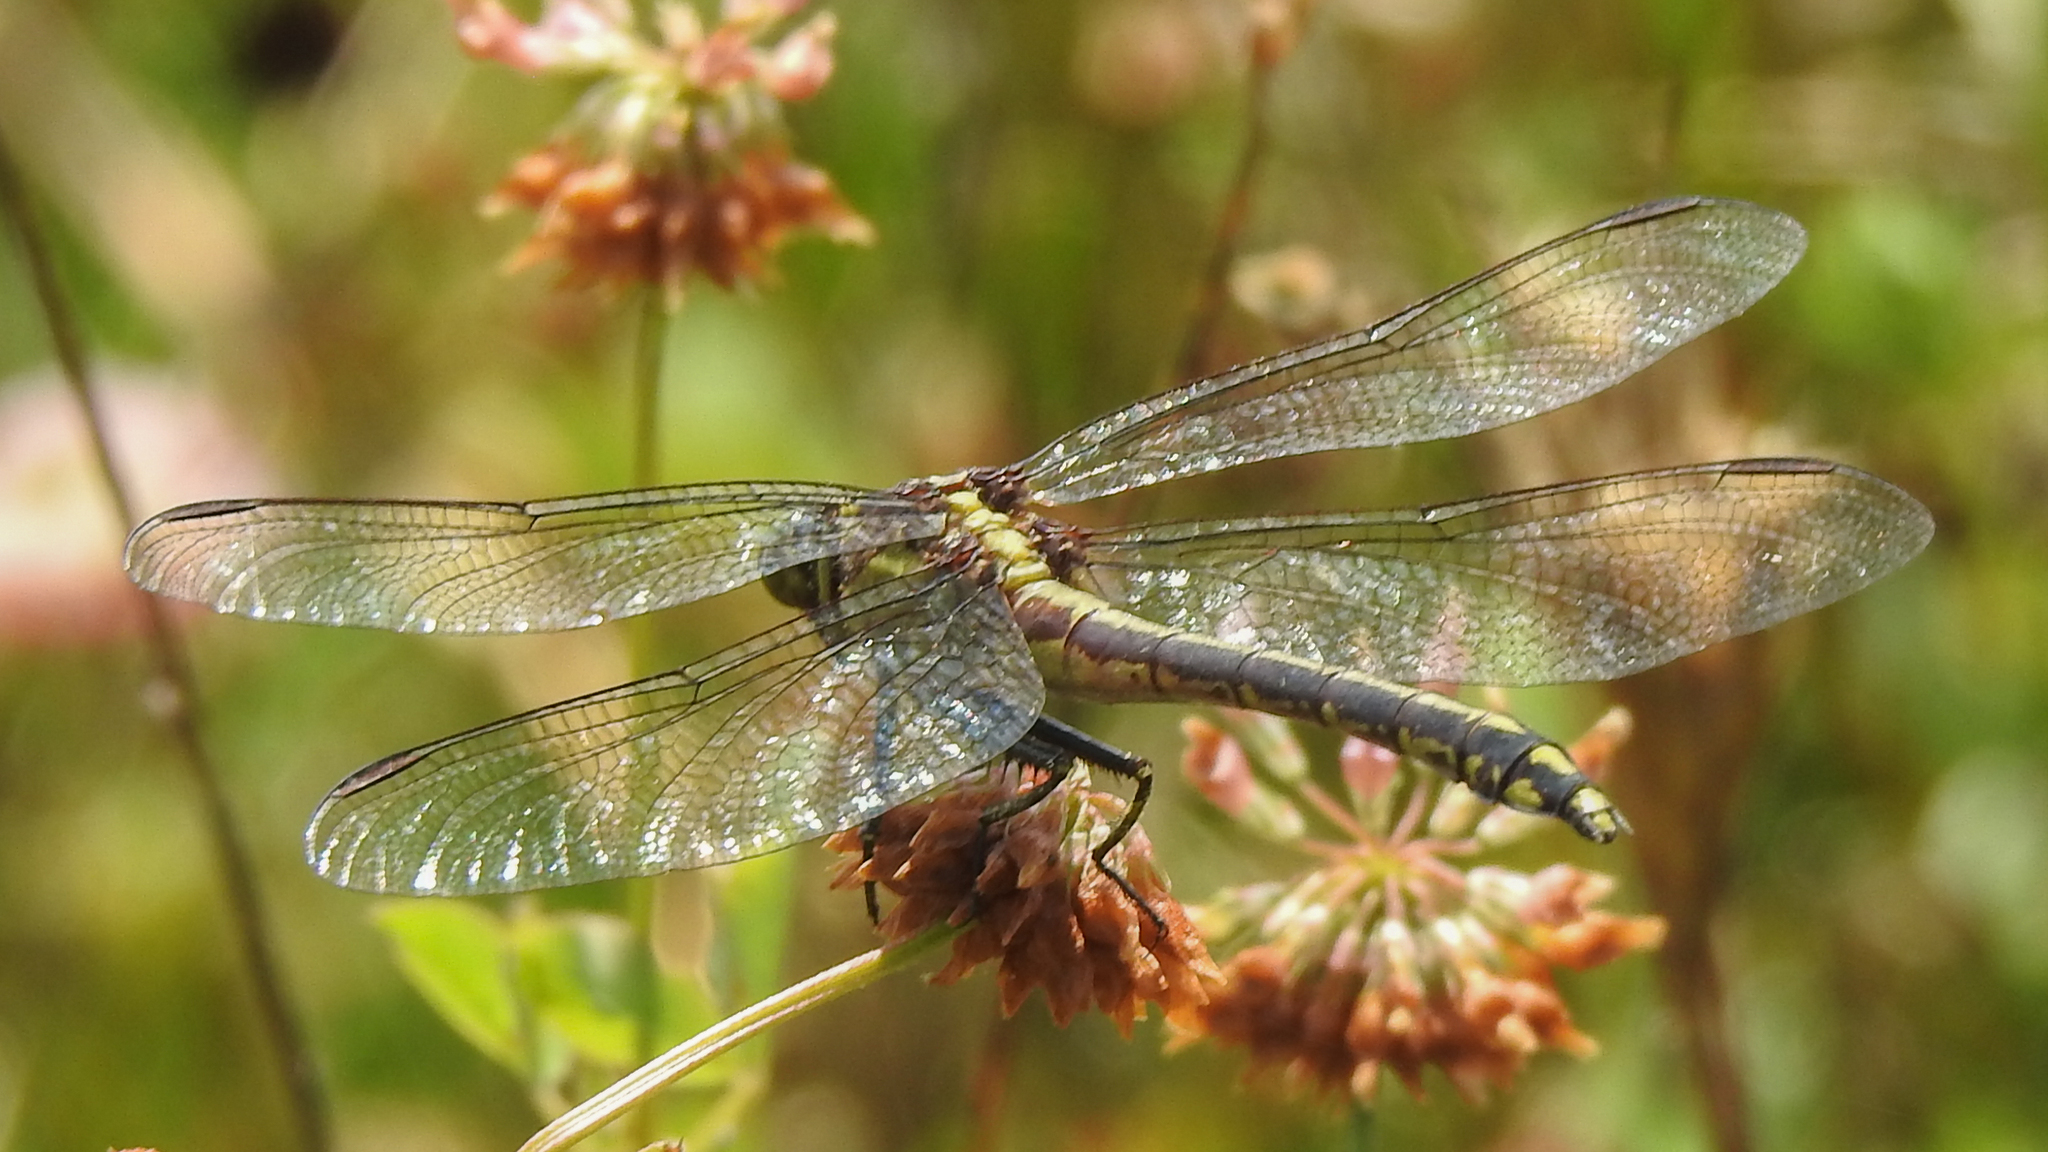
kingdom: Animalia
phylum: Arthropoda
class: Insecta
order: Odonata
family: Gomphidae
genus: Dromogomphus
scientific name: Dromogomphus spinosus
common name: Black-shouldered spinyleg
